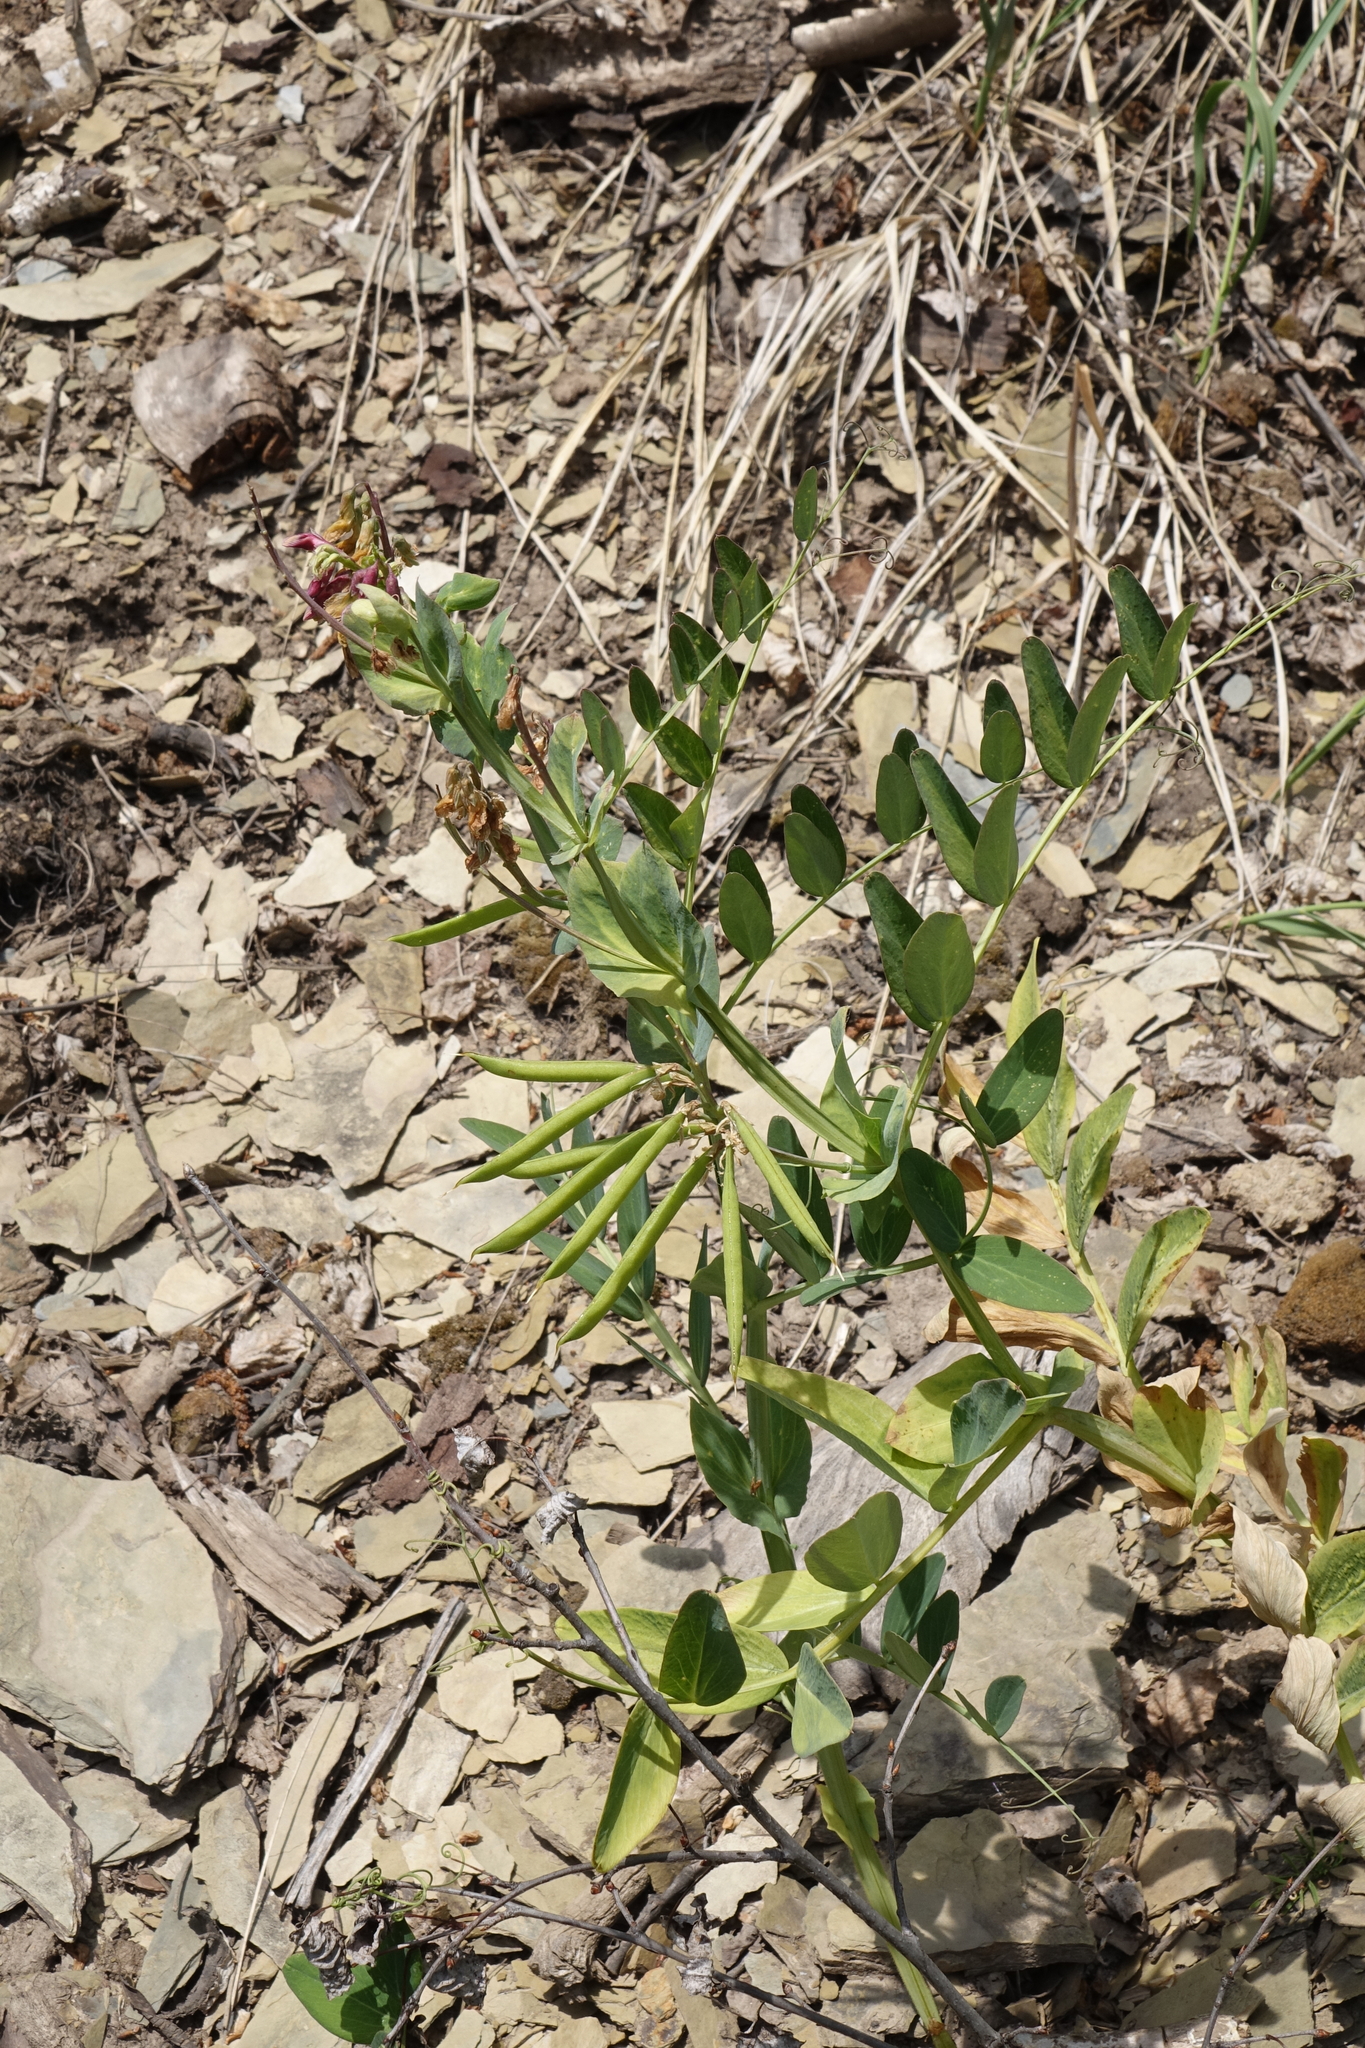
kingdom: Plantae
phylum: Tracheophyta
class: Magnoliopsida
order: Fabales
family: Fabaceae
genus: Lathyrus
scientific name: Lathyrus pisiformis
